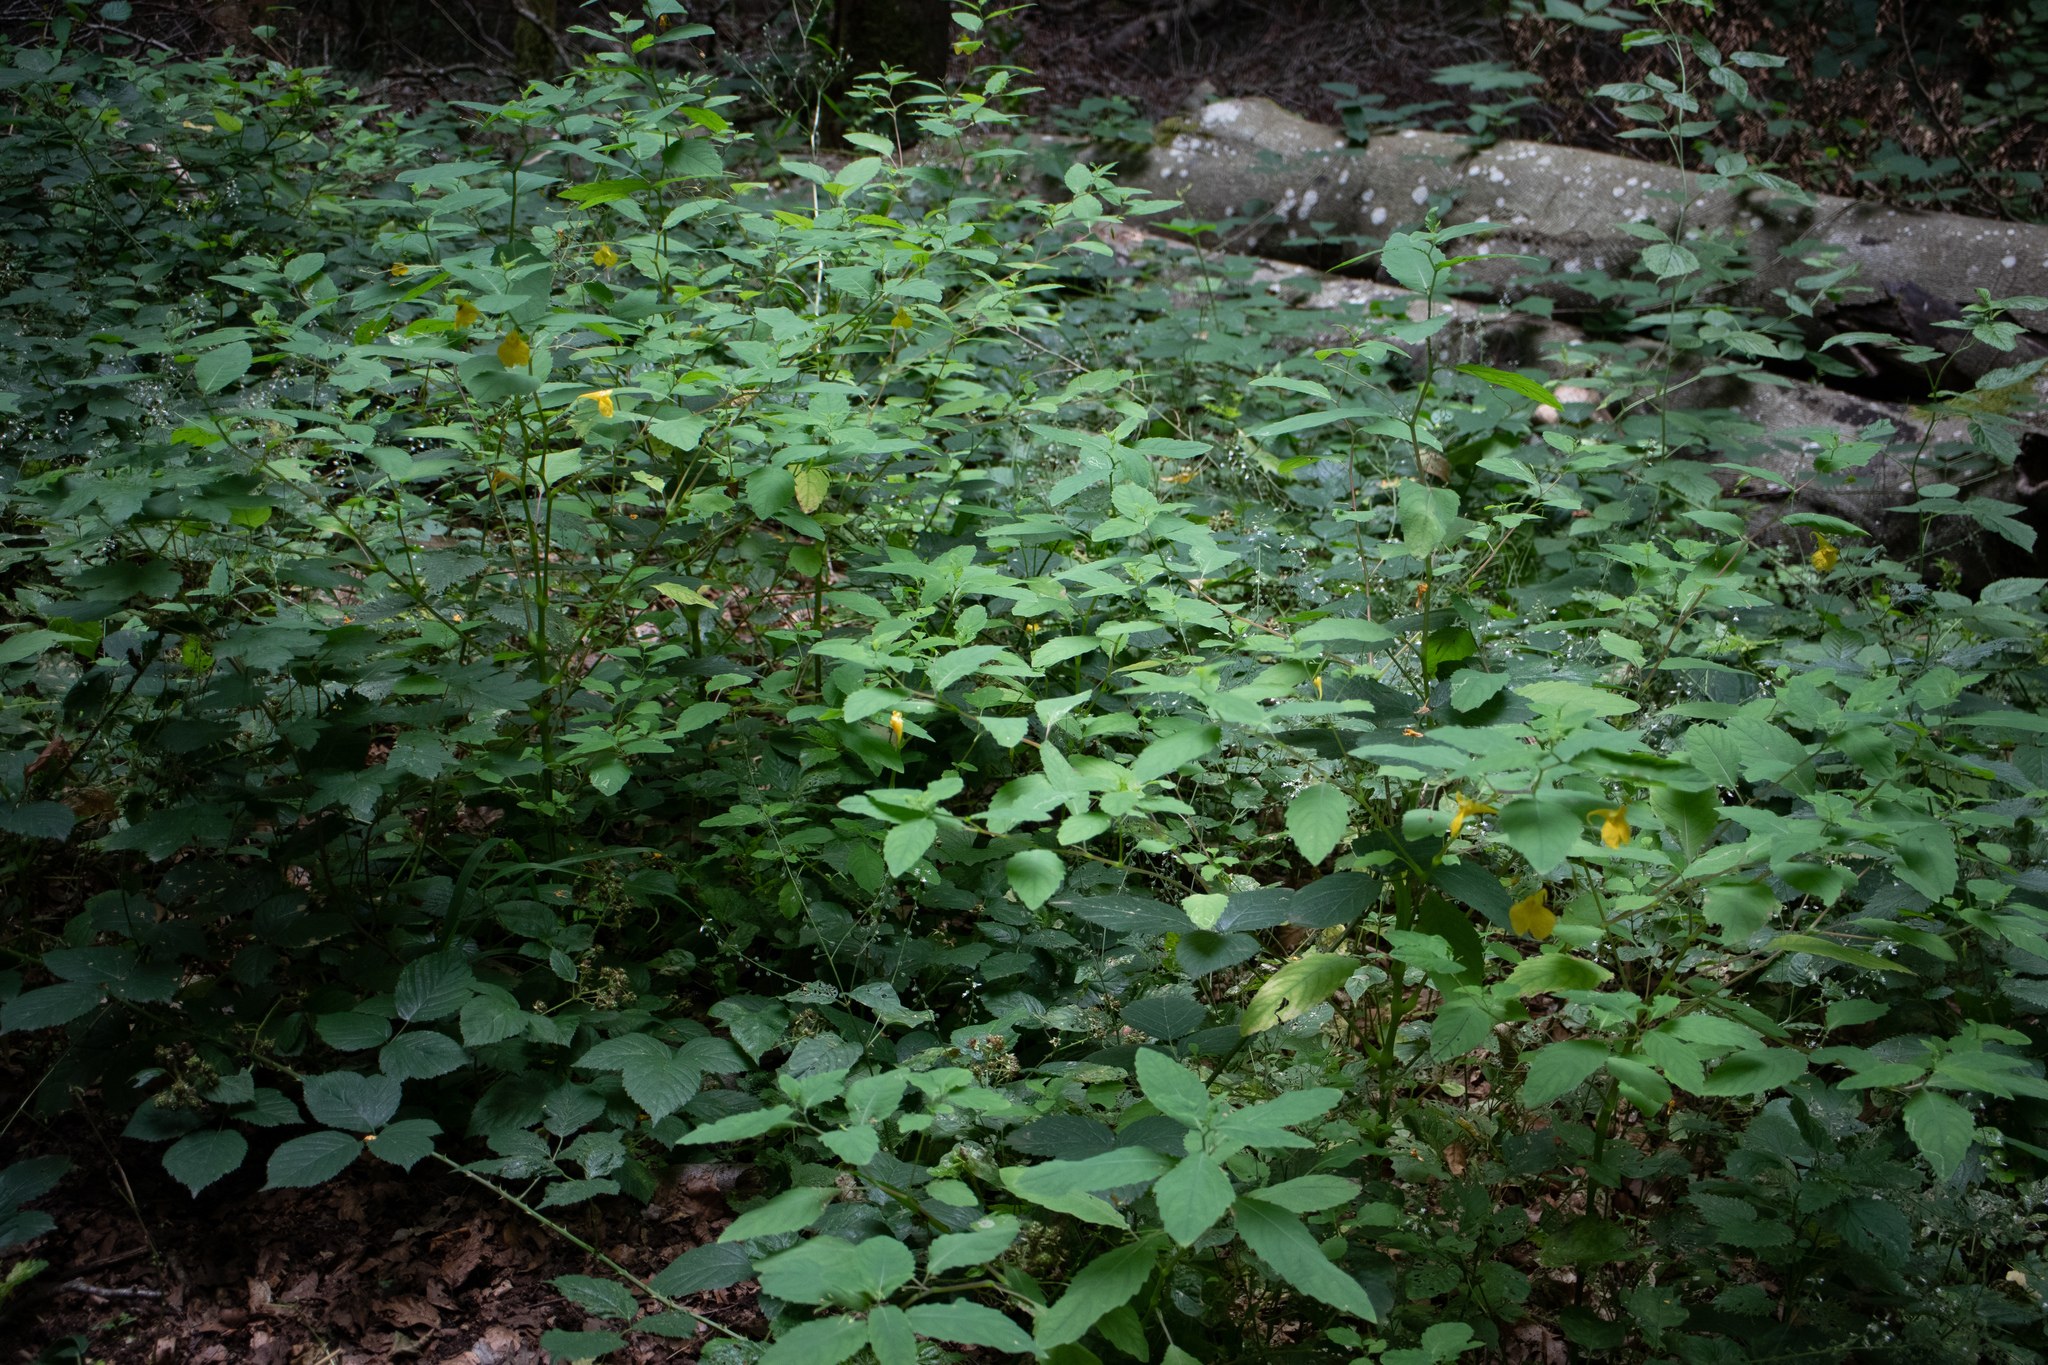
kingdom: Plantae
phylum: Tracheophyta
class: Magnoliopsida
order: Ericales
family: Balsaminaceae
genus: Impatiens
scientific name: Impatiens noli-tangere
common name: Touch-me-not balsam
